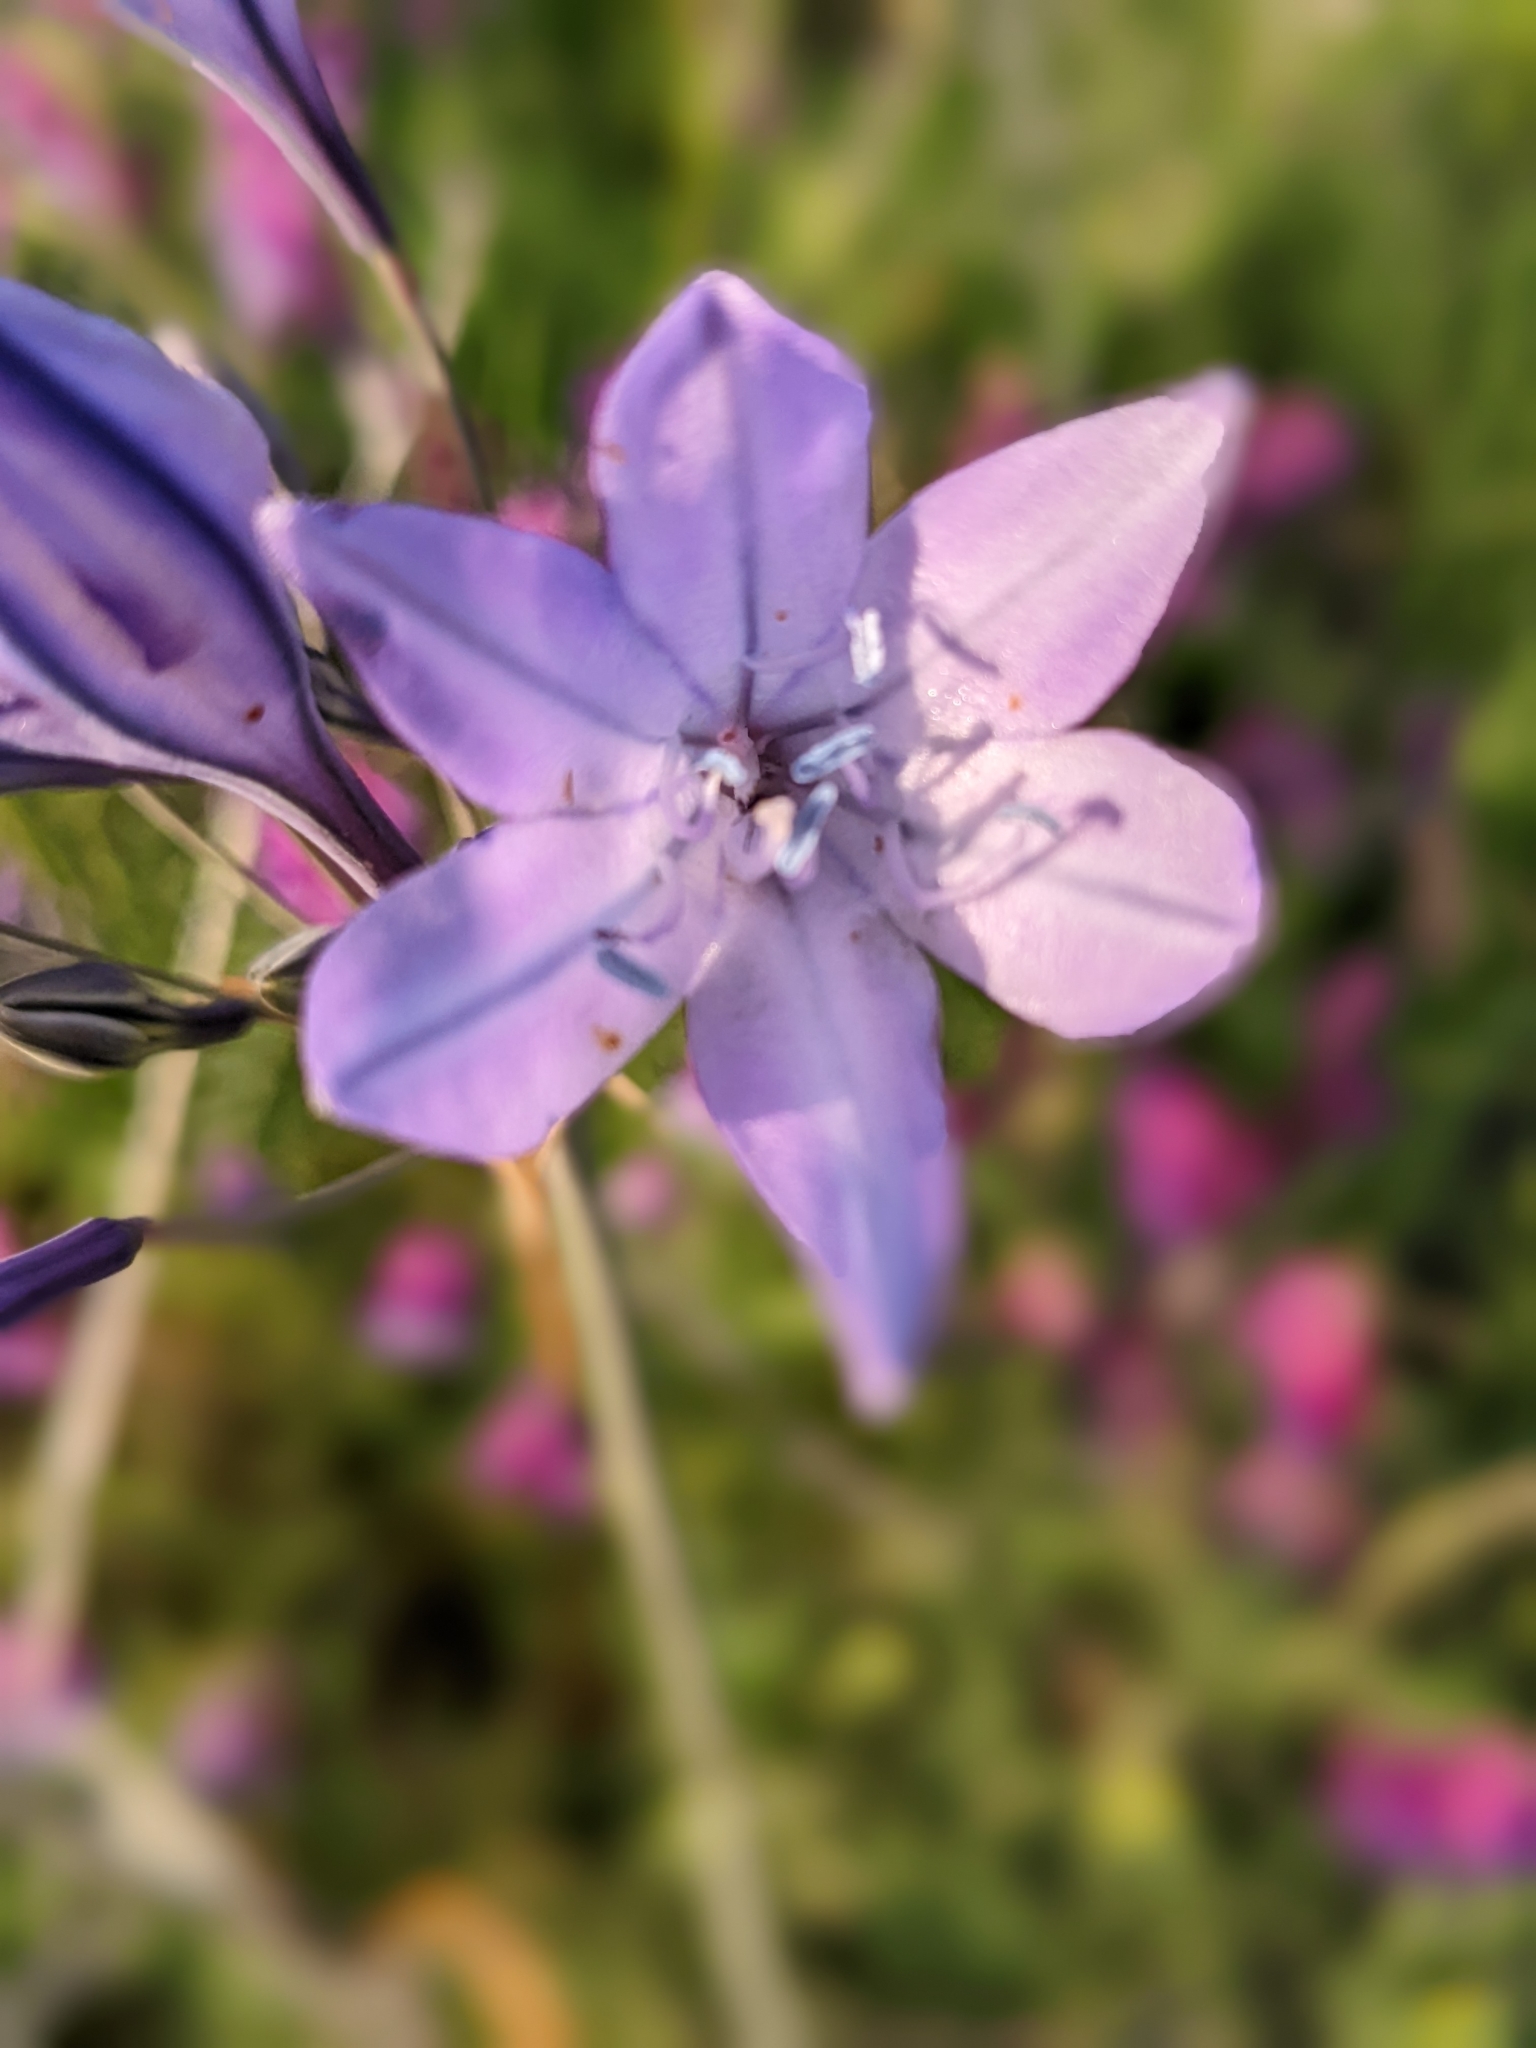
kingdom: Plantae
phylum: Tracheophyta
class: Liliopsida
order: Asparagales
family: Asparagaceae
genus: Triteleia
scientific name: Triteleia laxa
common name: Triplet-lily
